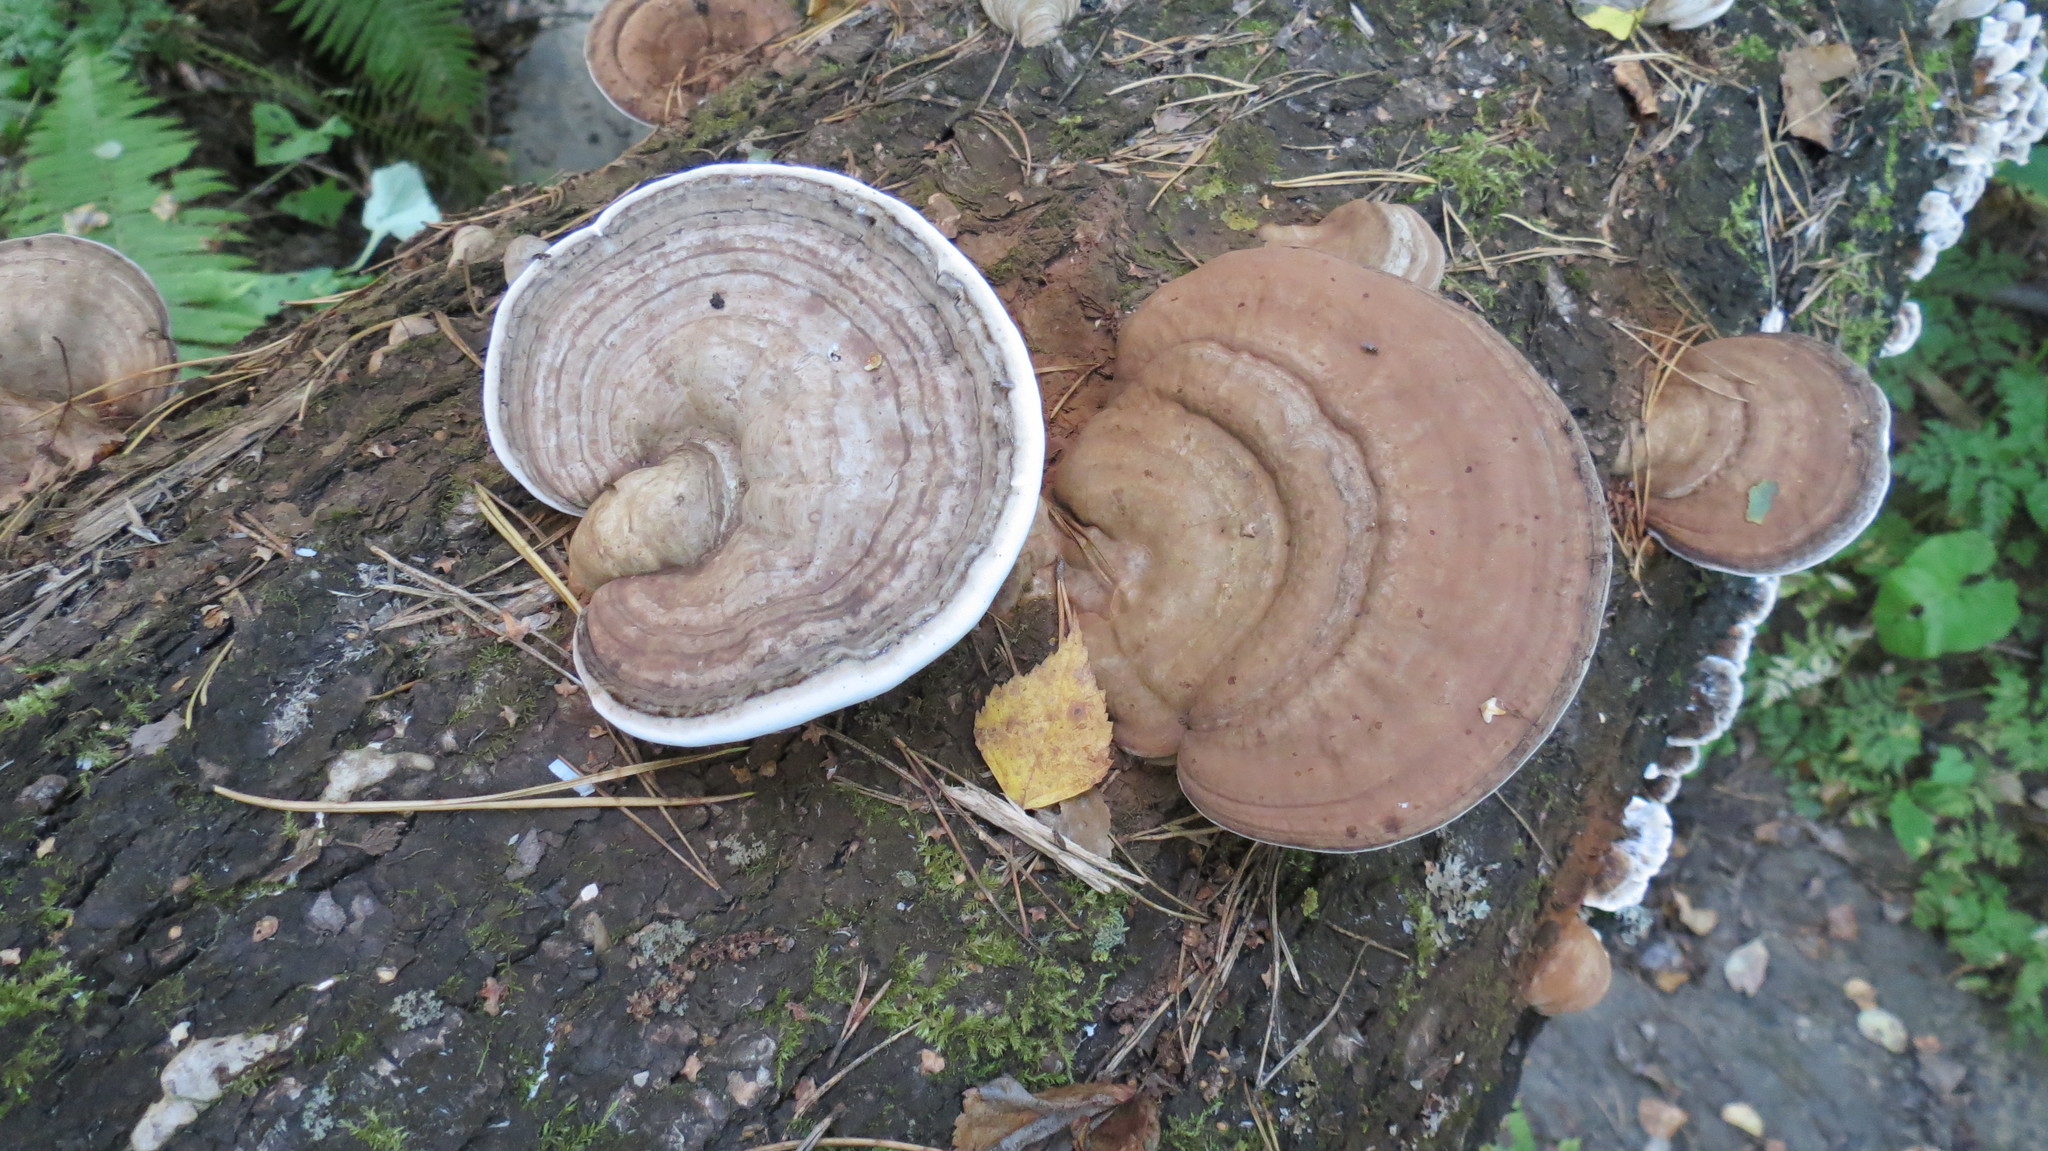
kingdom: Fungi
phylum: Basidiomycota
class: Agaricomycetes
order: Polyporales
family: Polyporaceae
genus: Ganoderma
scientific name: Ganoderma applanatum
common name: Artist's bracket
